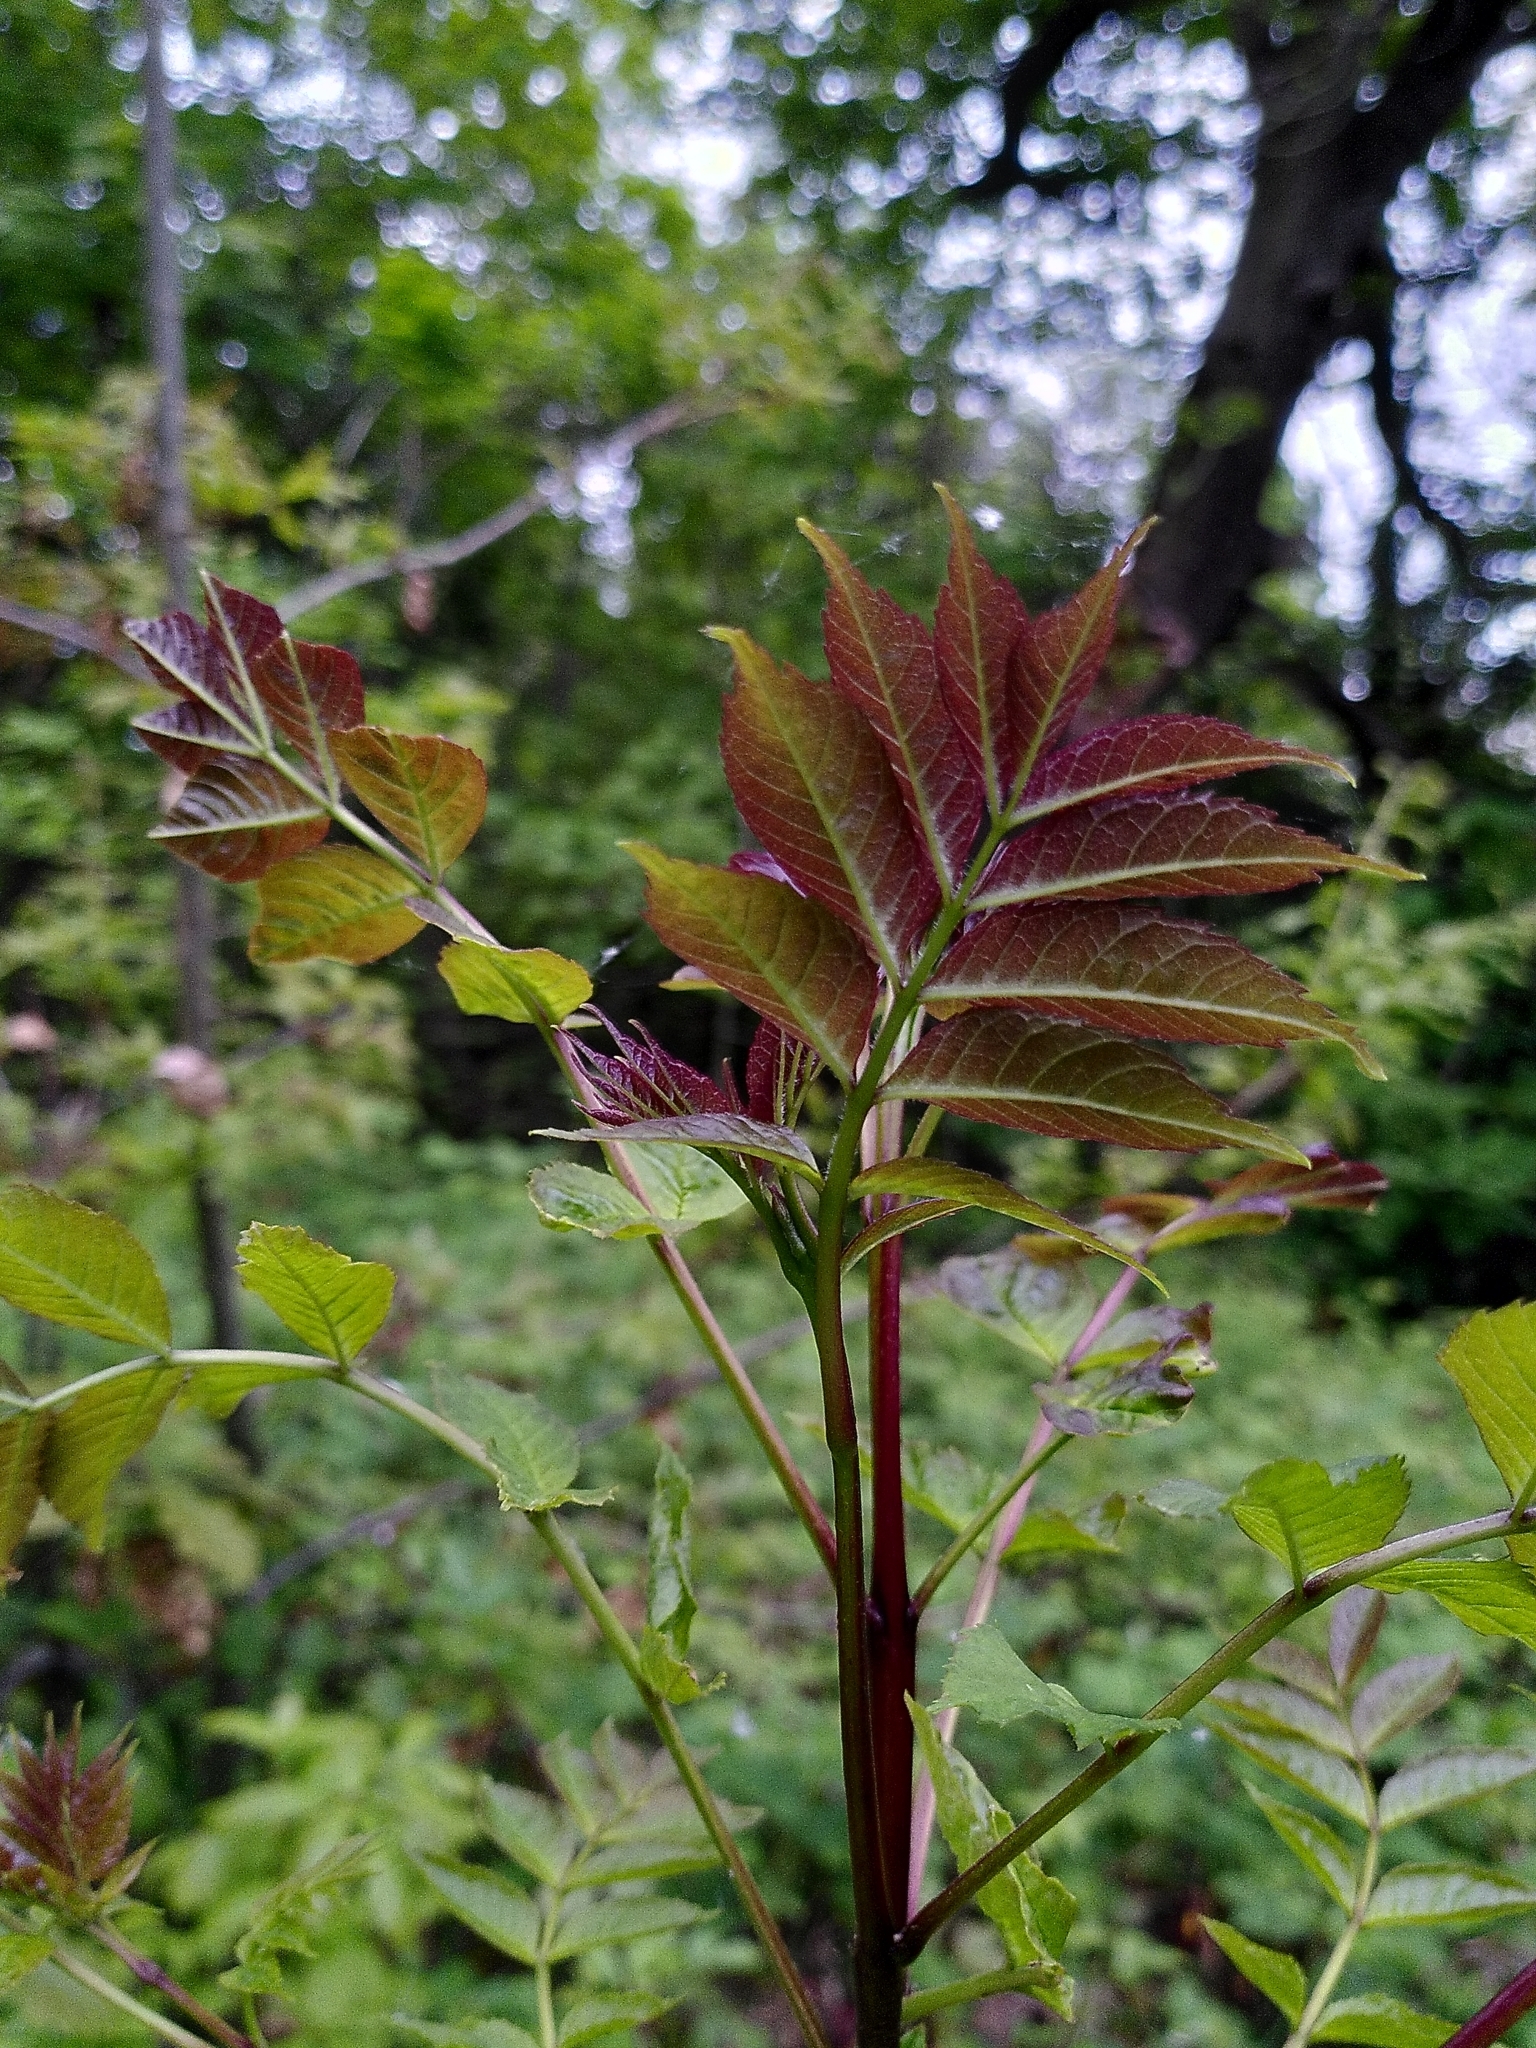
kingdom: Plantae
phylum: Tracheophyta
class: Magnoliopsida
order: Lamiales
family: Oleaceae
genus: Fraxinus
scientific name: Fraxinus excelsior
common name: European ash
